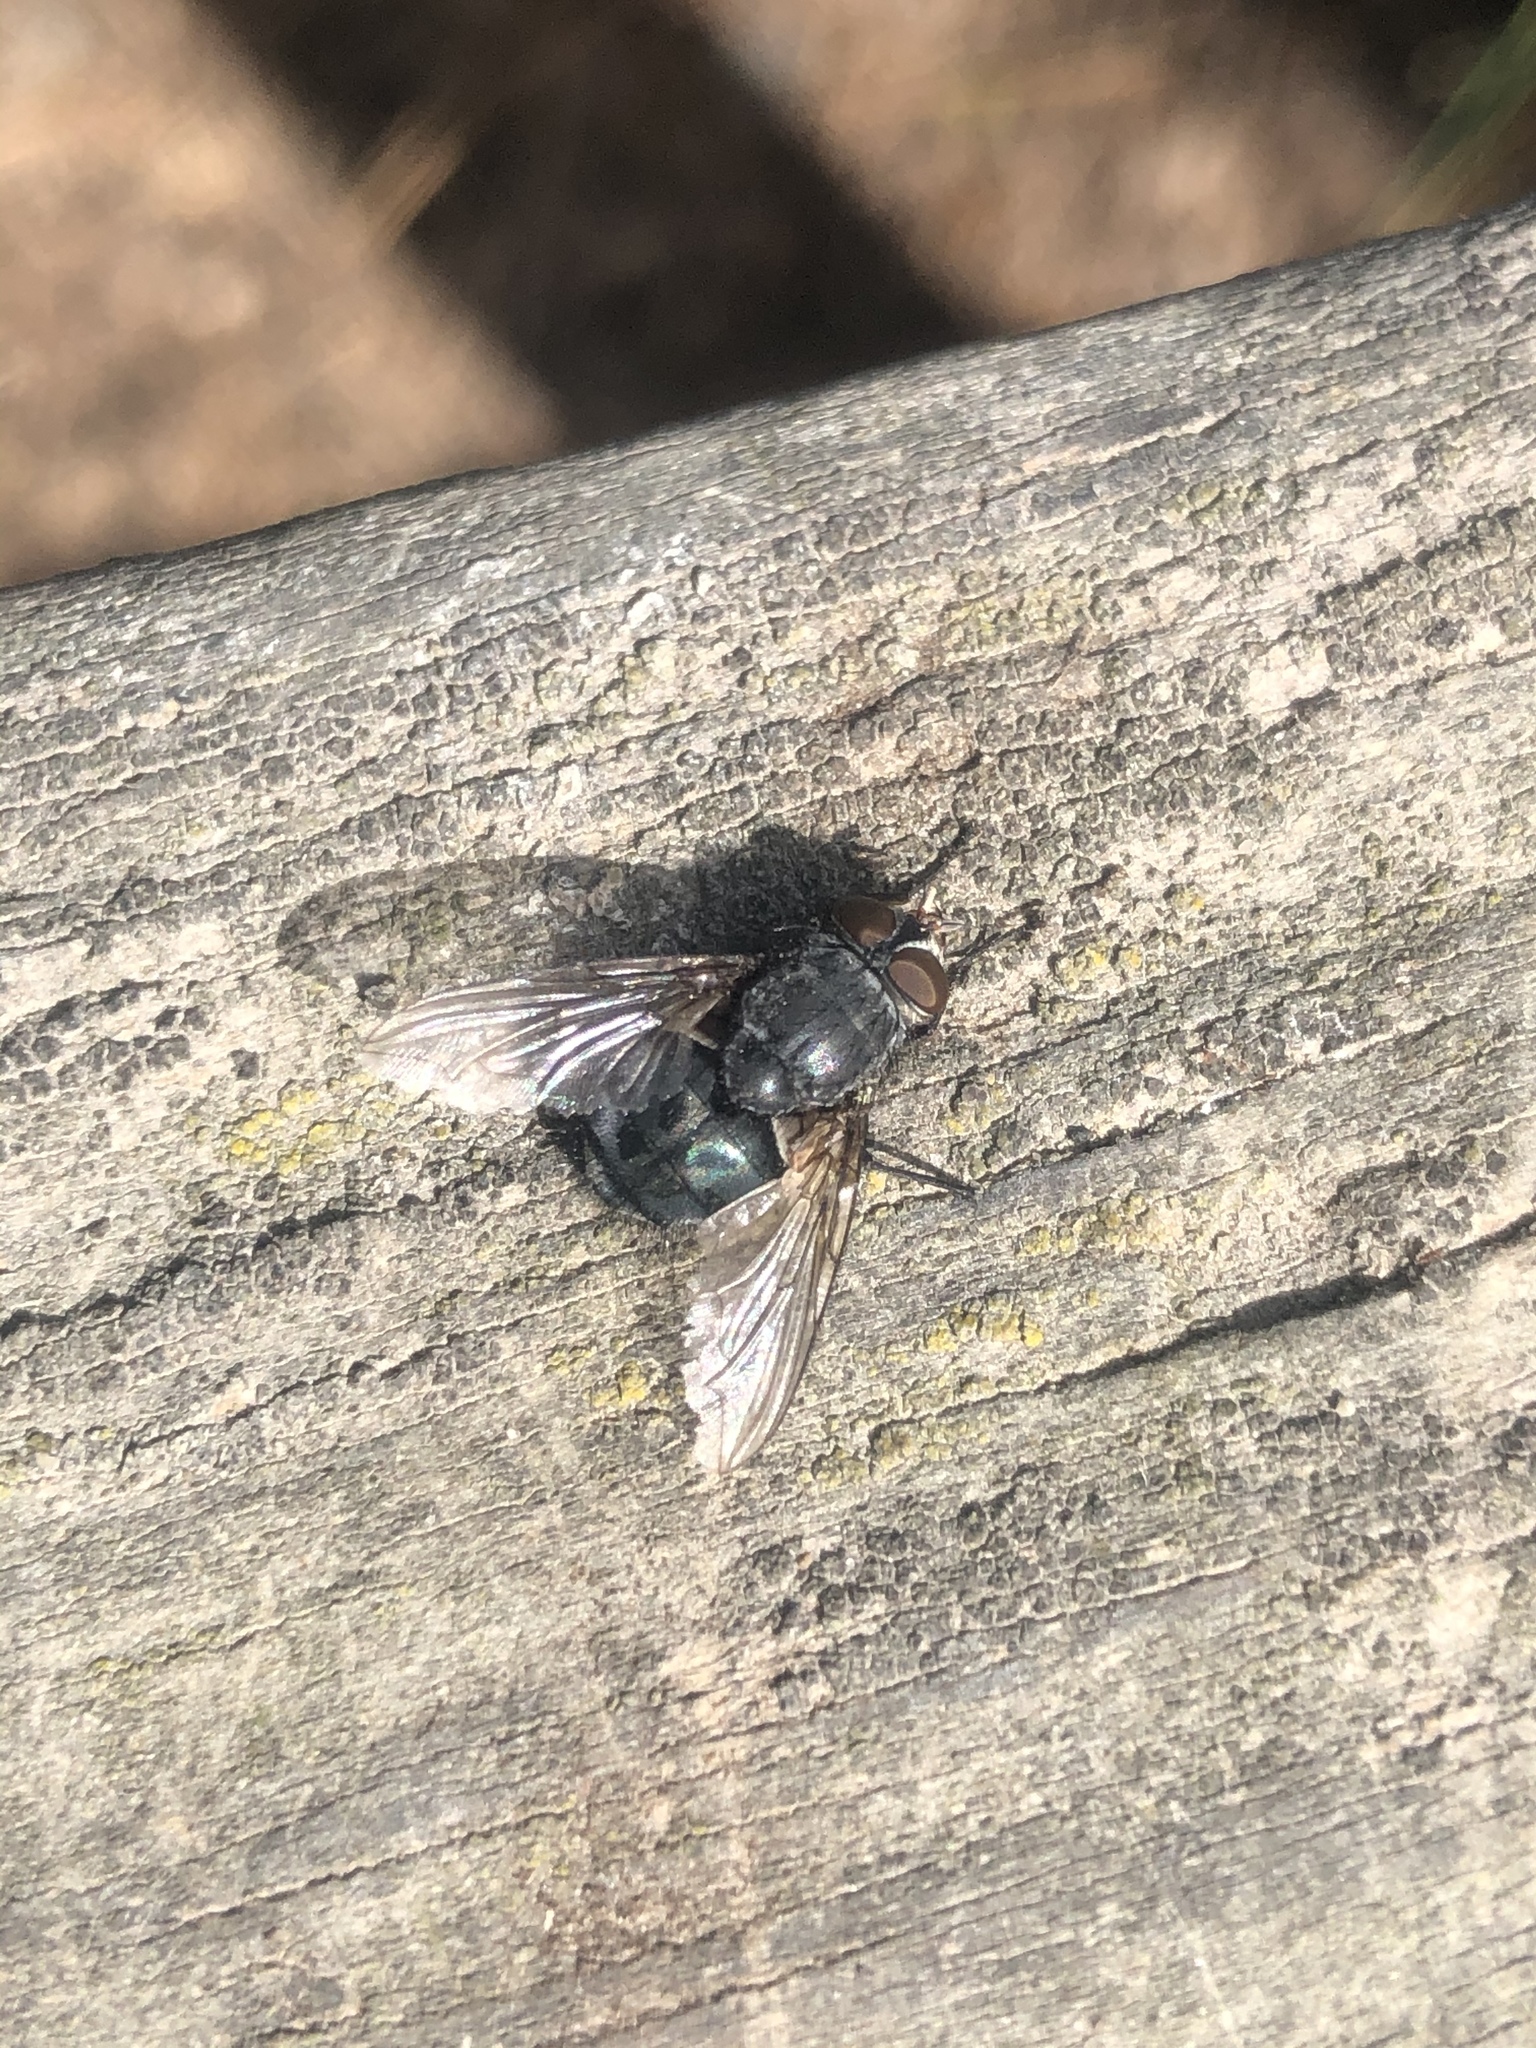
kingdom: Animalia
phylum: Arthropoda
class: Insecta
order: Diptera
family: Calliphoridae
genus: Calliphora
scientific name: Calliphora vicina
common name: Common blow flie
